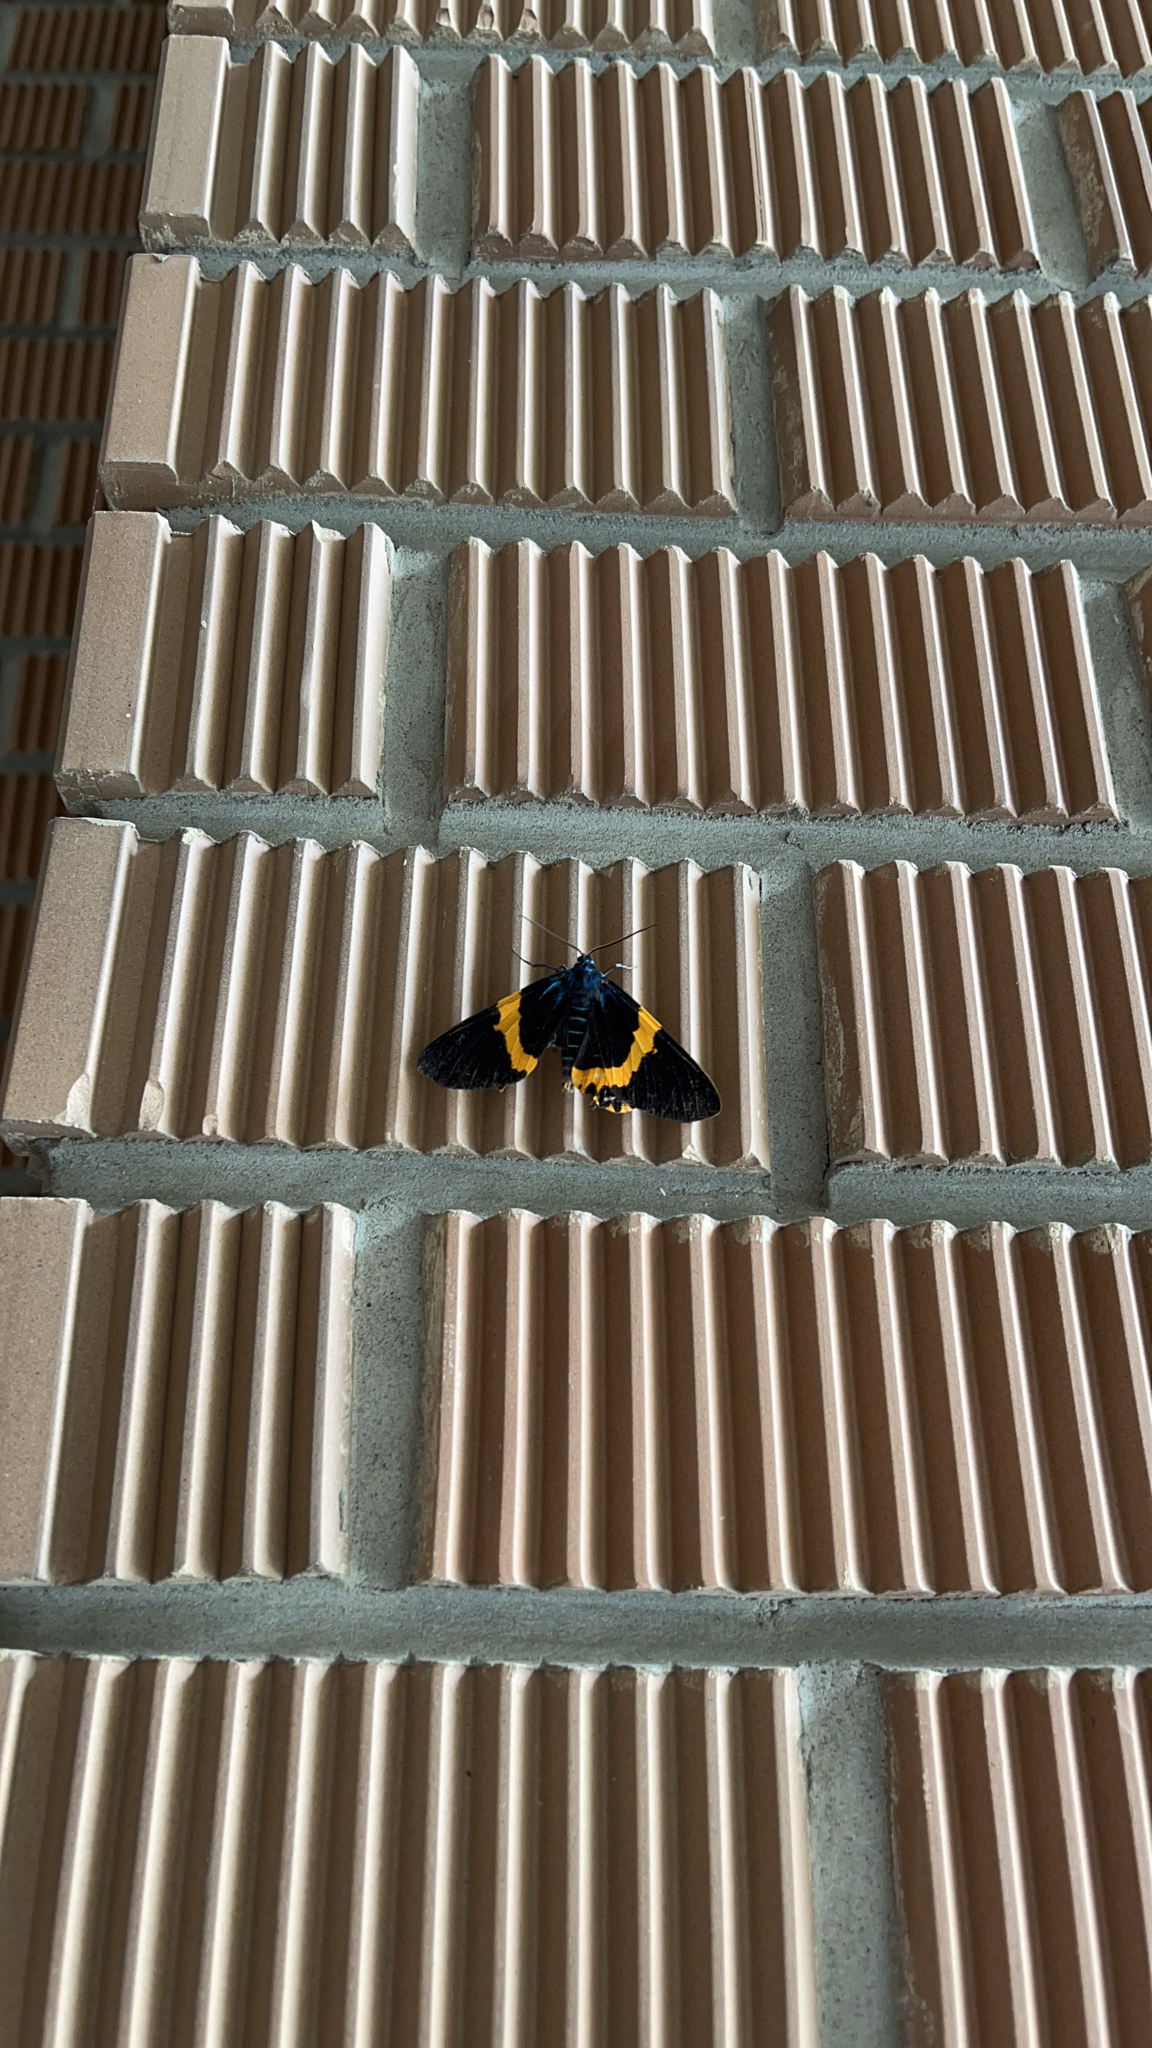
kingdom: Animalia
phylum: Arthropoda
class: Insecta
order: Lepidoptera
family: Geometridae
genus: Milionia
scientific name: Milionia basalis
